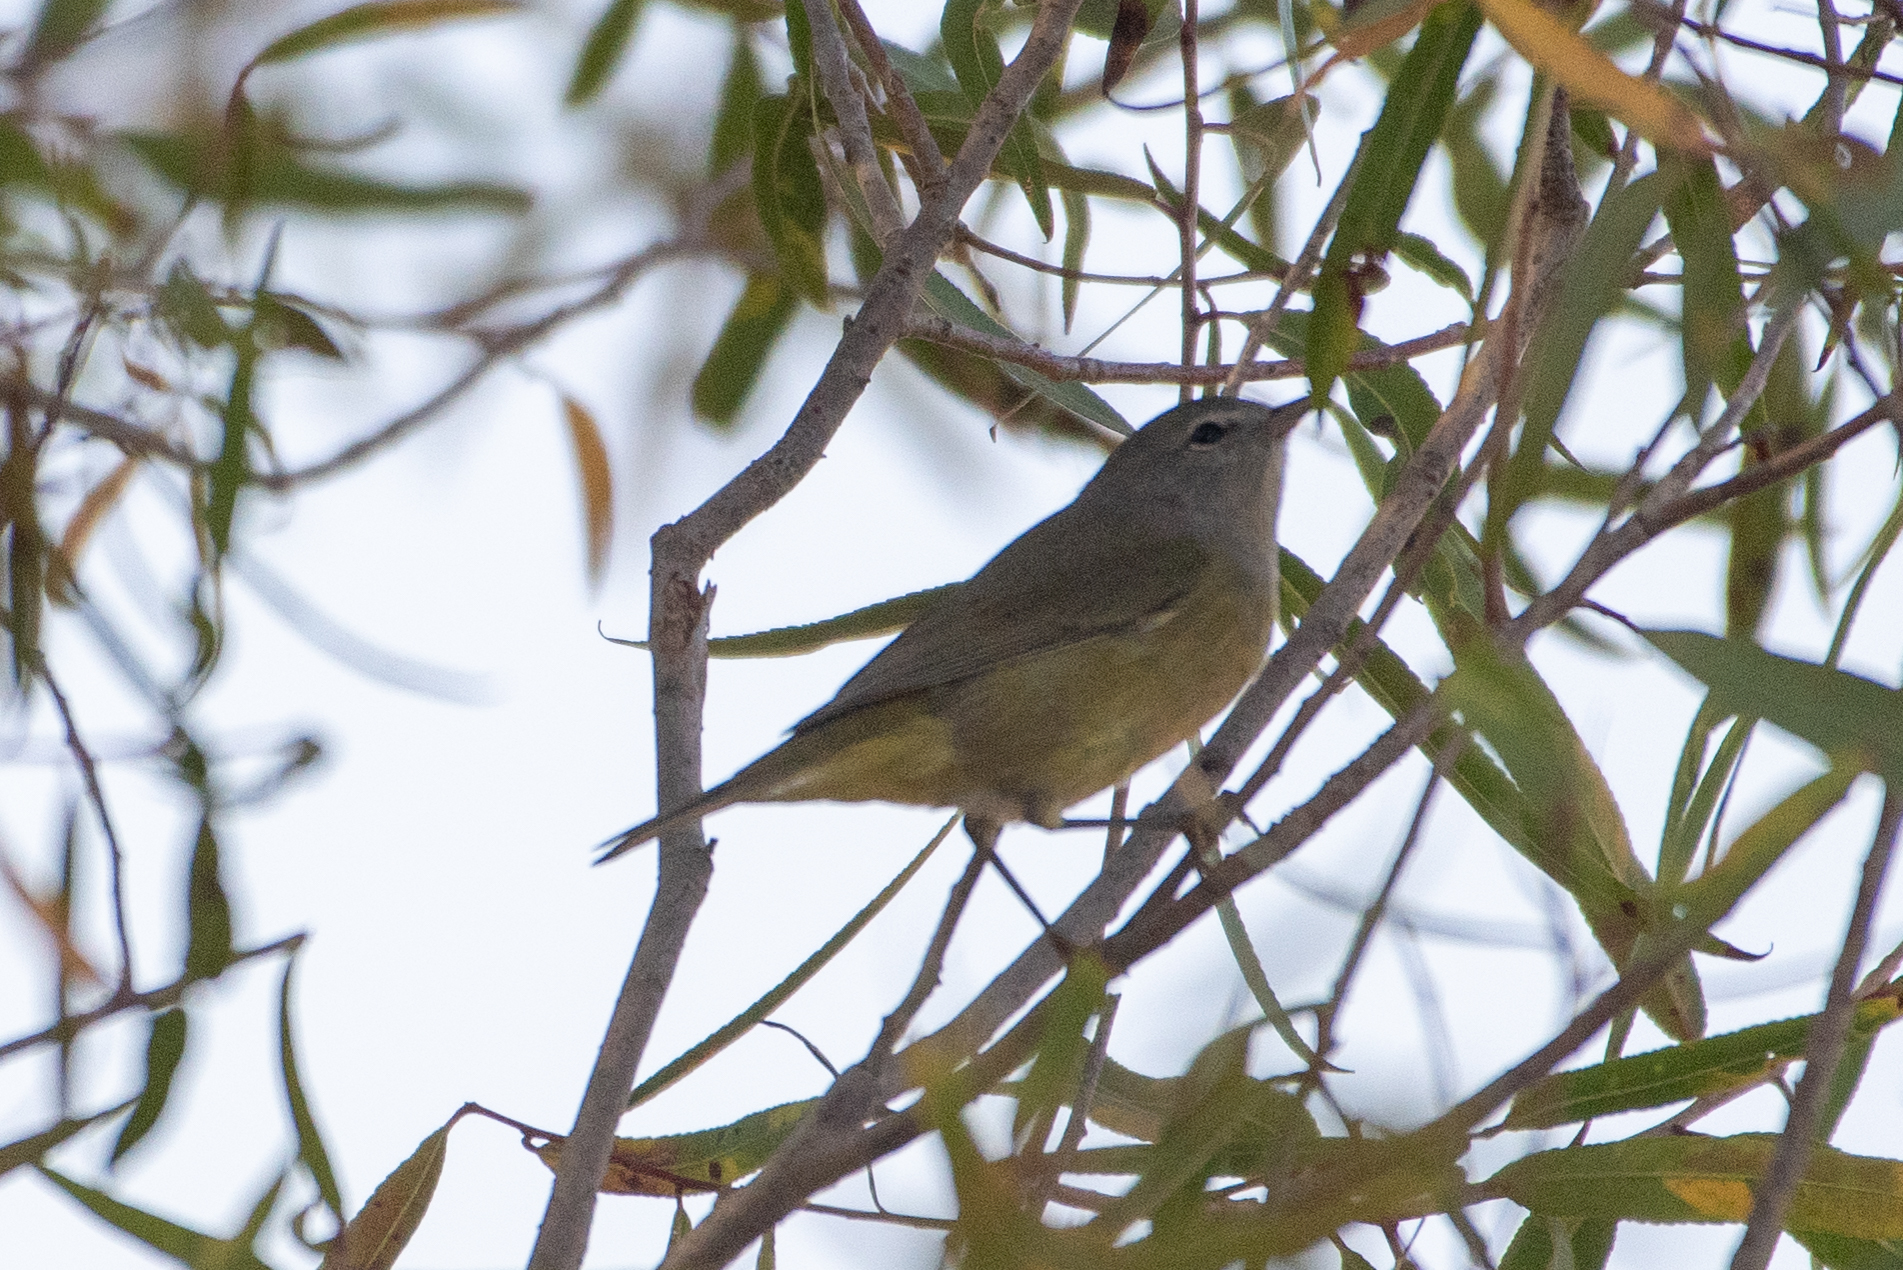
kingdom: Animalia
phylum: Chordata
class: Aves
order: Passeriformes
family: Parulidae
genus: Leiothlypis
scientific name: Leiothlypis celata
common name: Orange-crowned warbler
